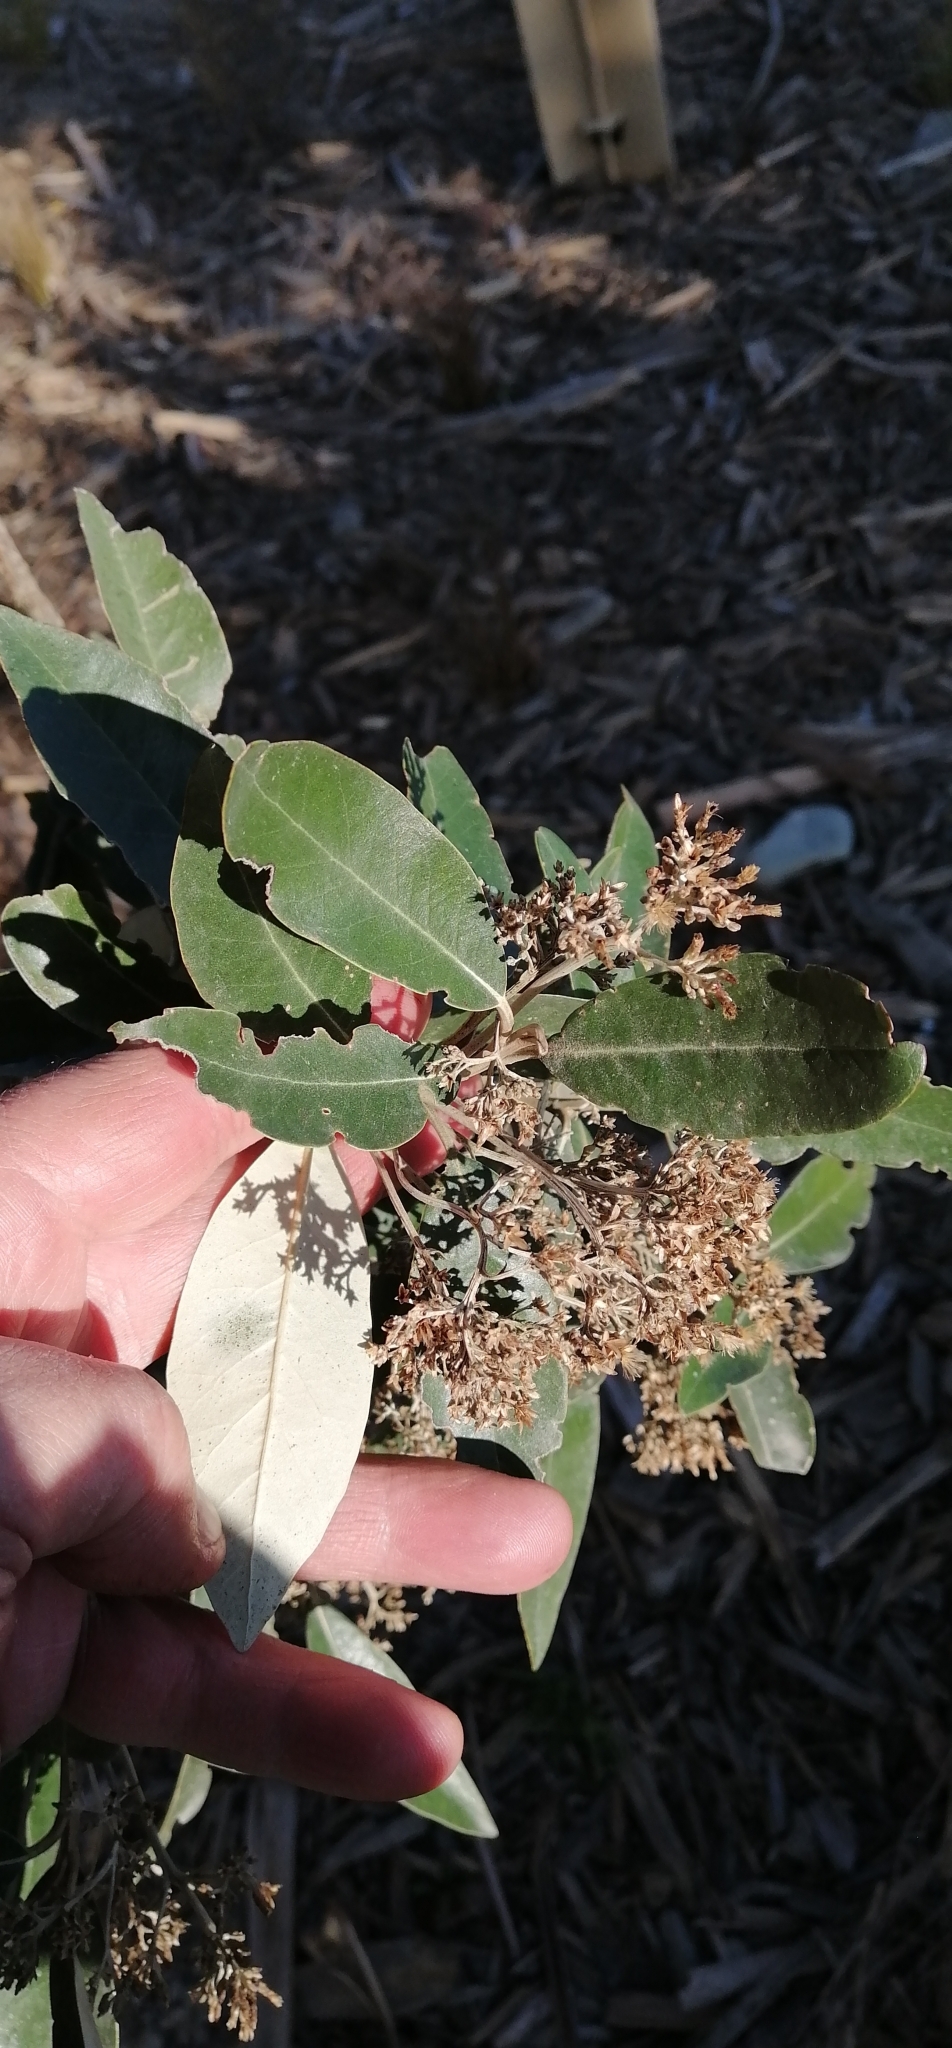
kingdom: Plantae
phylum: Tracheophyta
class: Magnoliopsida
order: Asterales
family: Asteraceae
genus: Olearia
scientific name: Olearia avicenniifolia
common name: Mangrove-leaf daisybush
